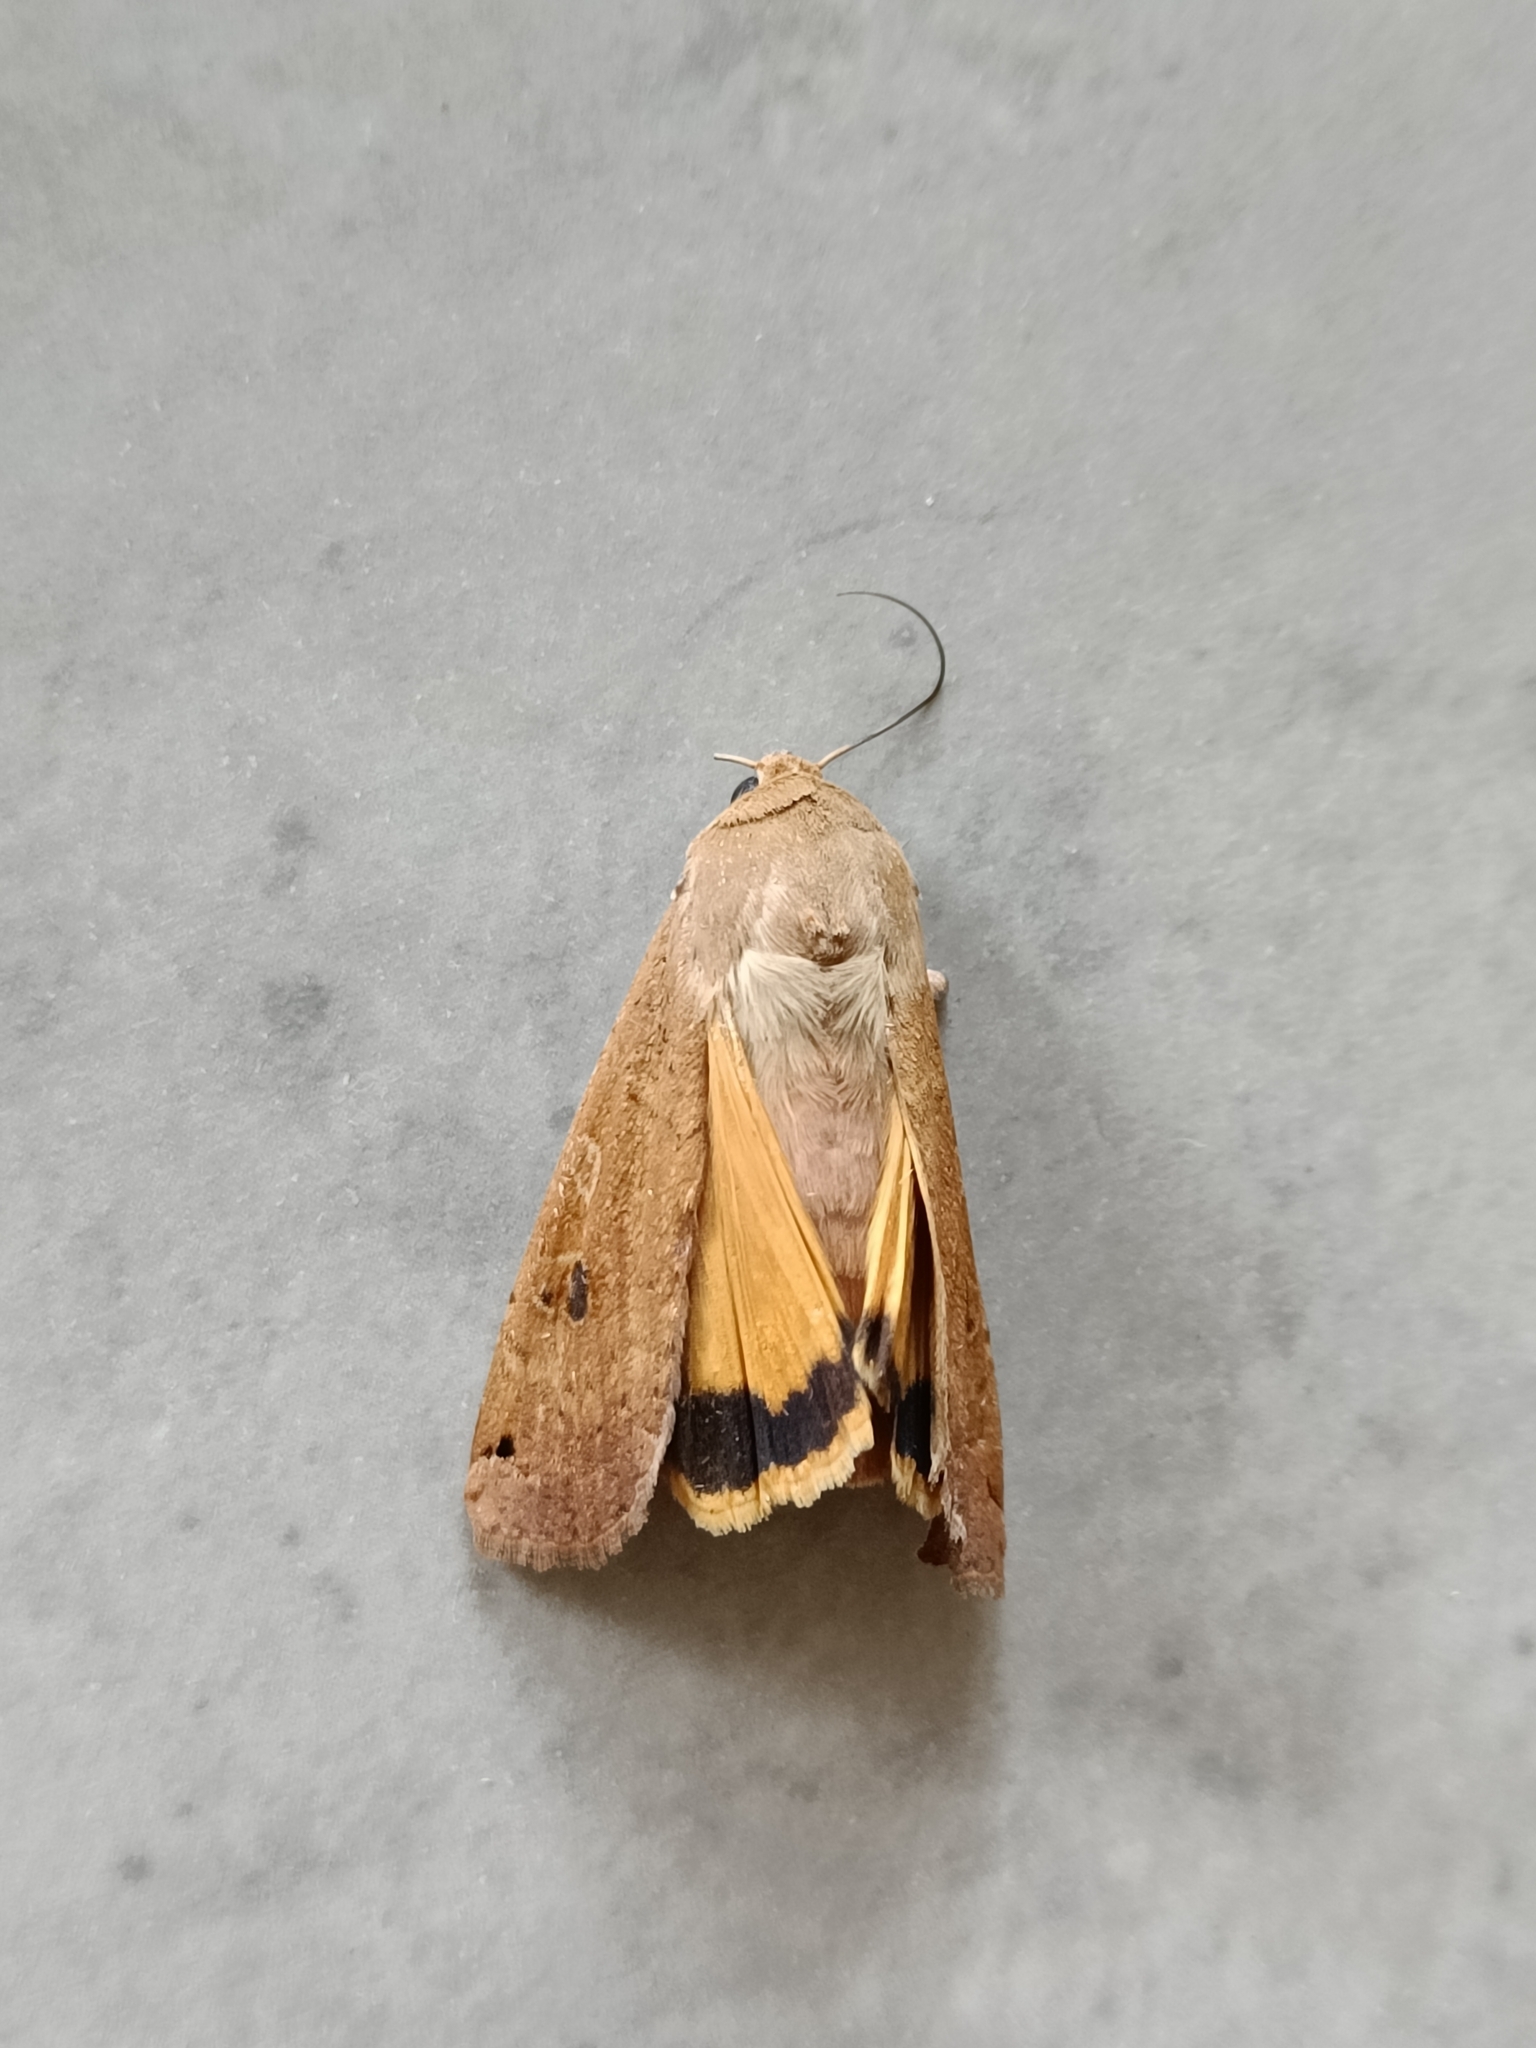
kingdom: Animalia
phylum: Arthropoda
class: Insecta
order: Lepidoptera
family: Noctuidae
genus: Noctua
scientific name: Noctua pronuba
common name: Large yellow underwing
